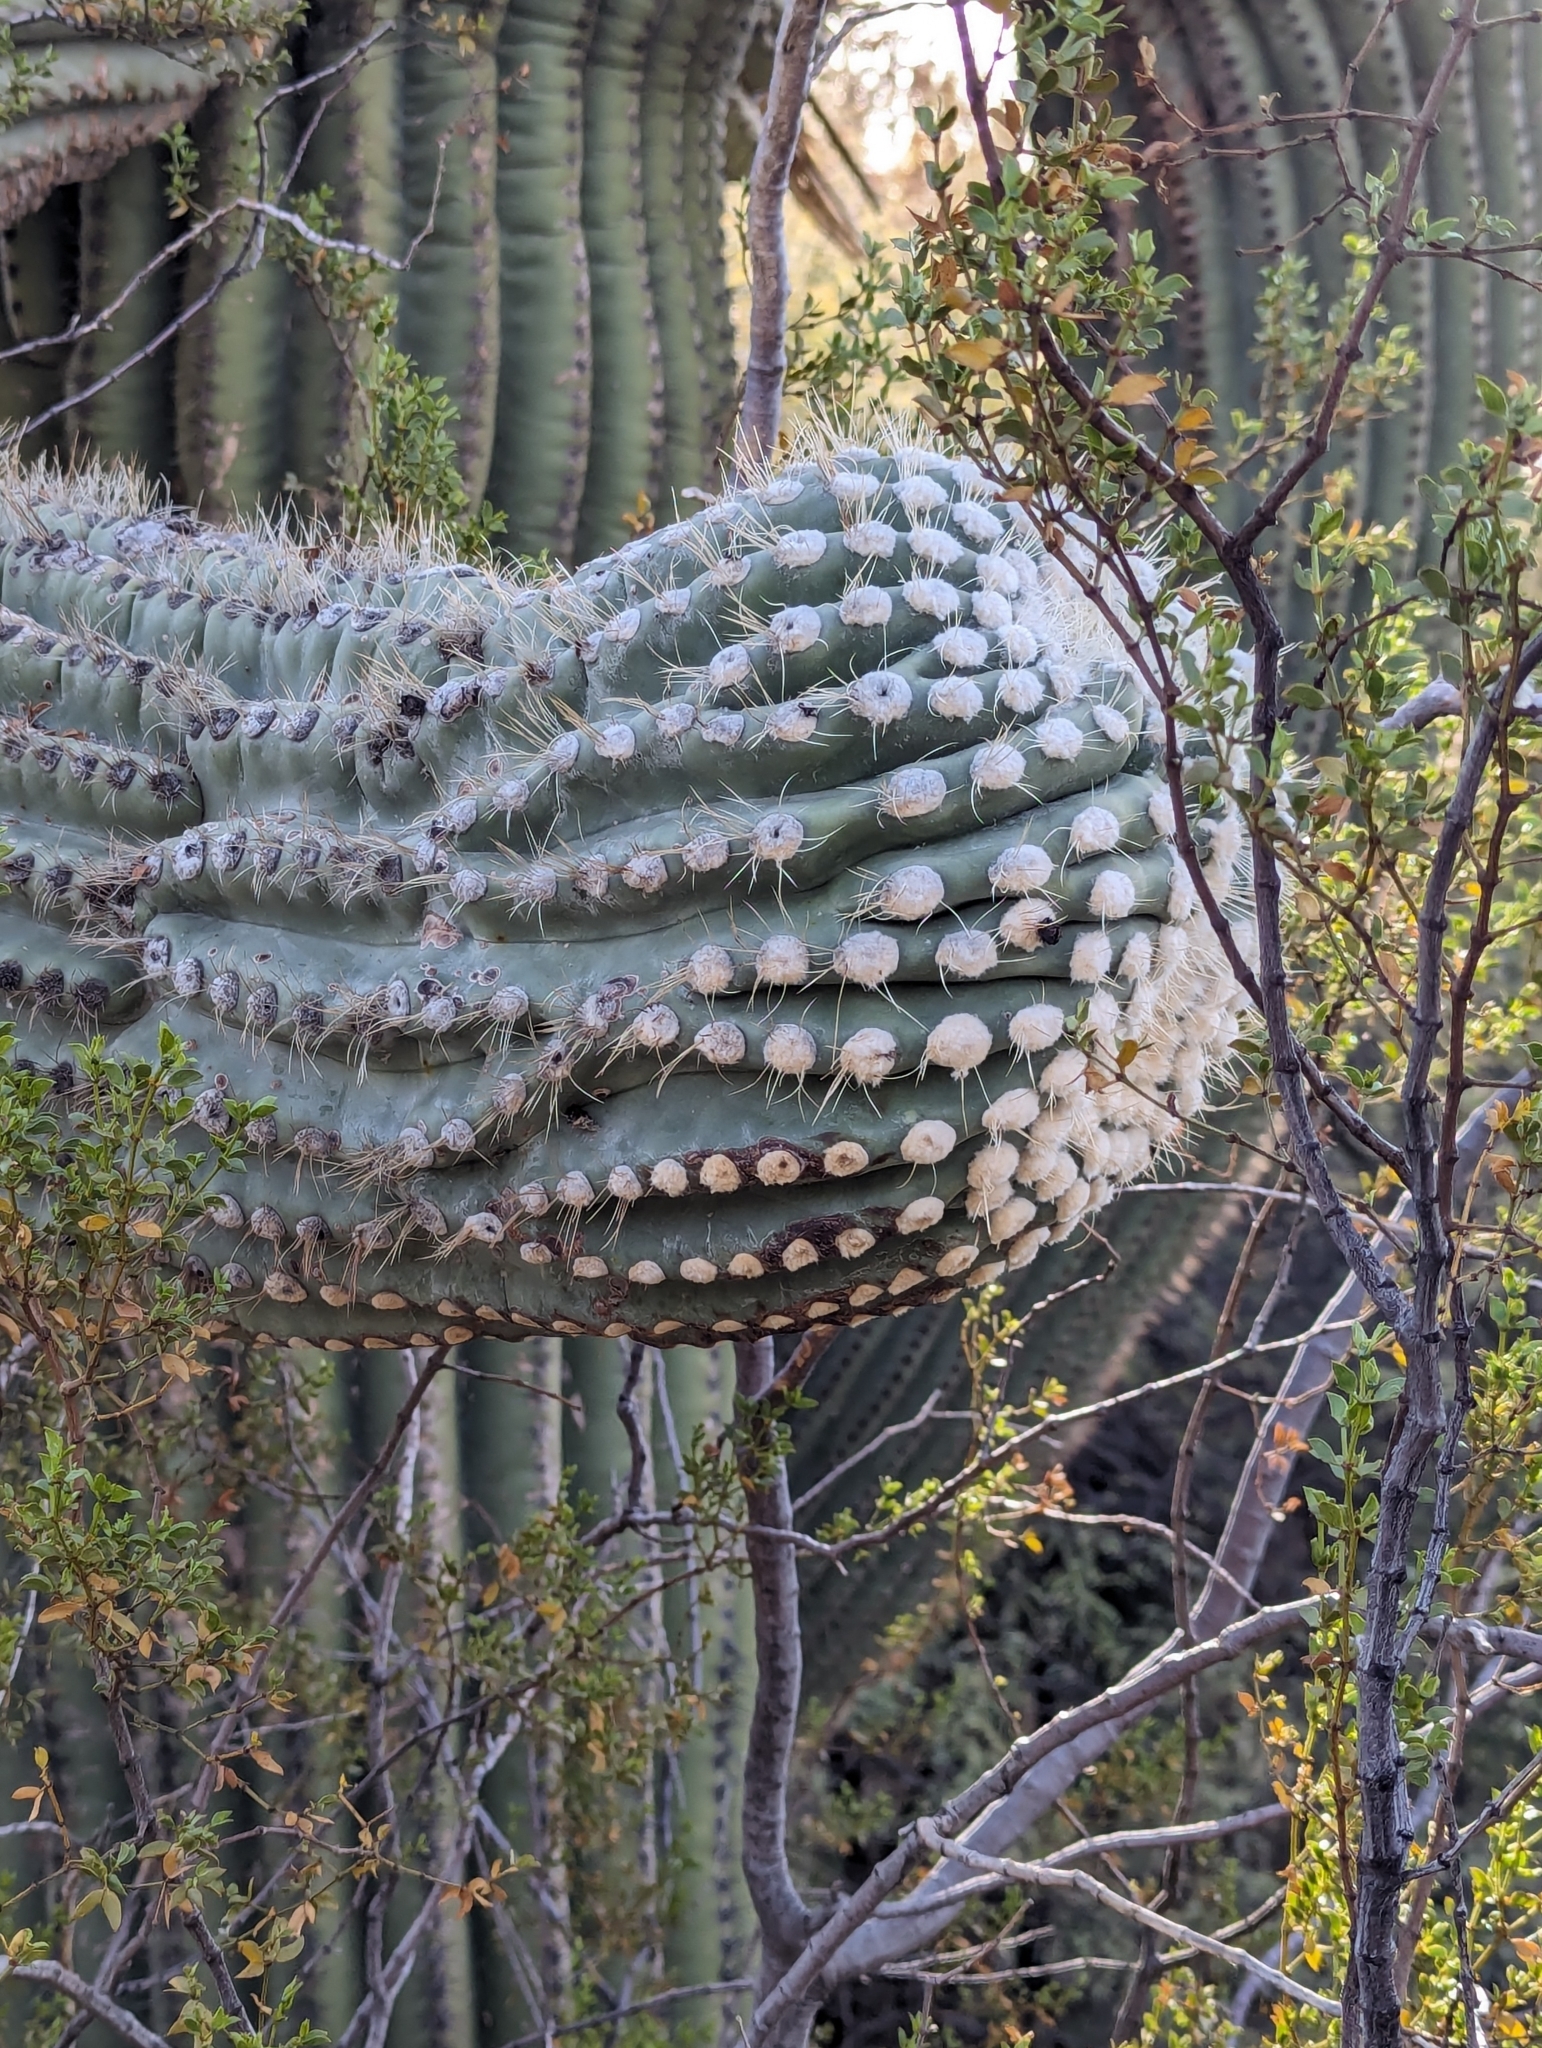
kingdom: Plantae
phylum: Tracheophyta
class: Magnoliopsida
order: Caryophyllales
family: Cactaceae
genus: Carnegiea
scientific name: Carnegiea gigantea
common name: Saguaro
